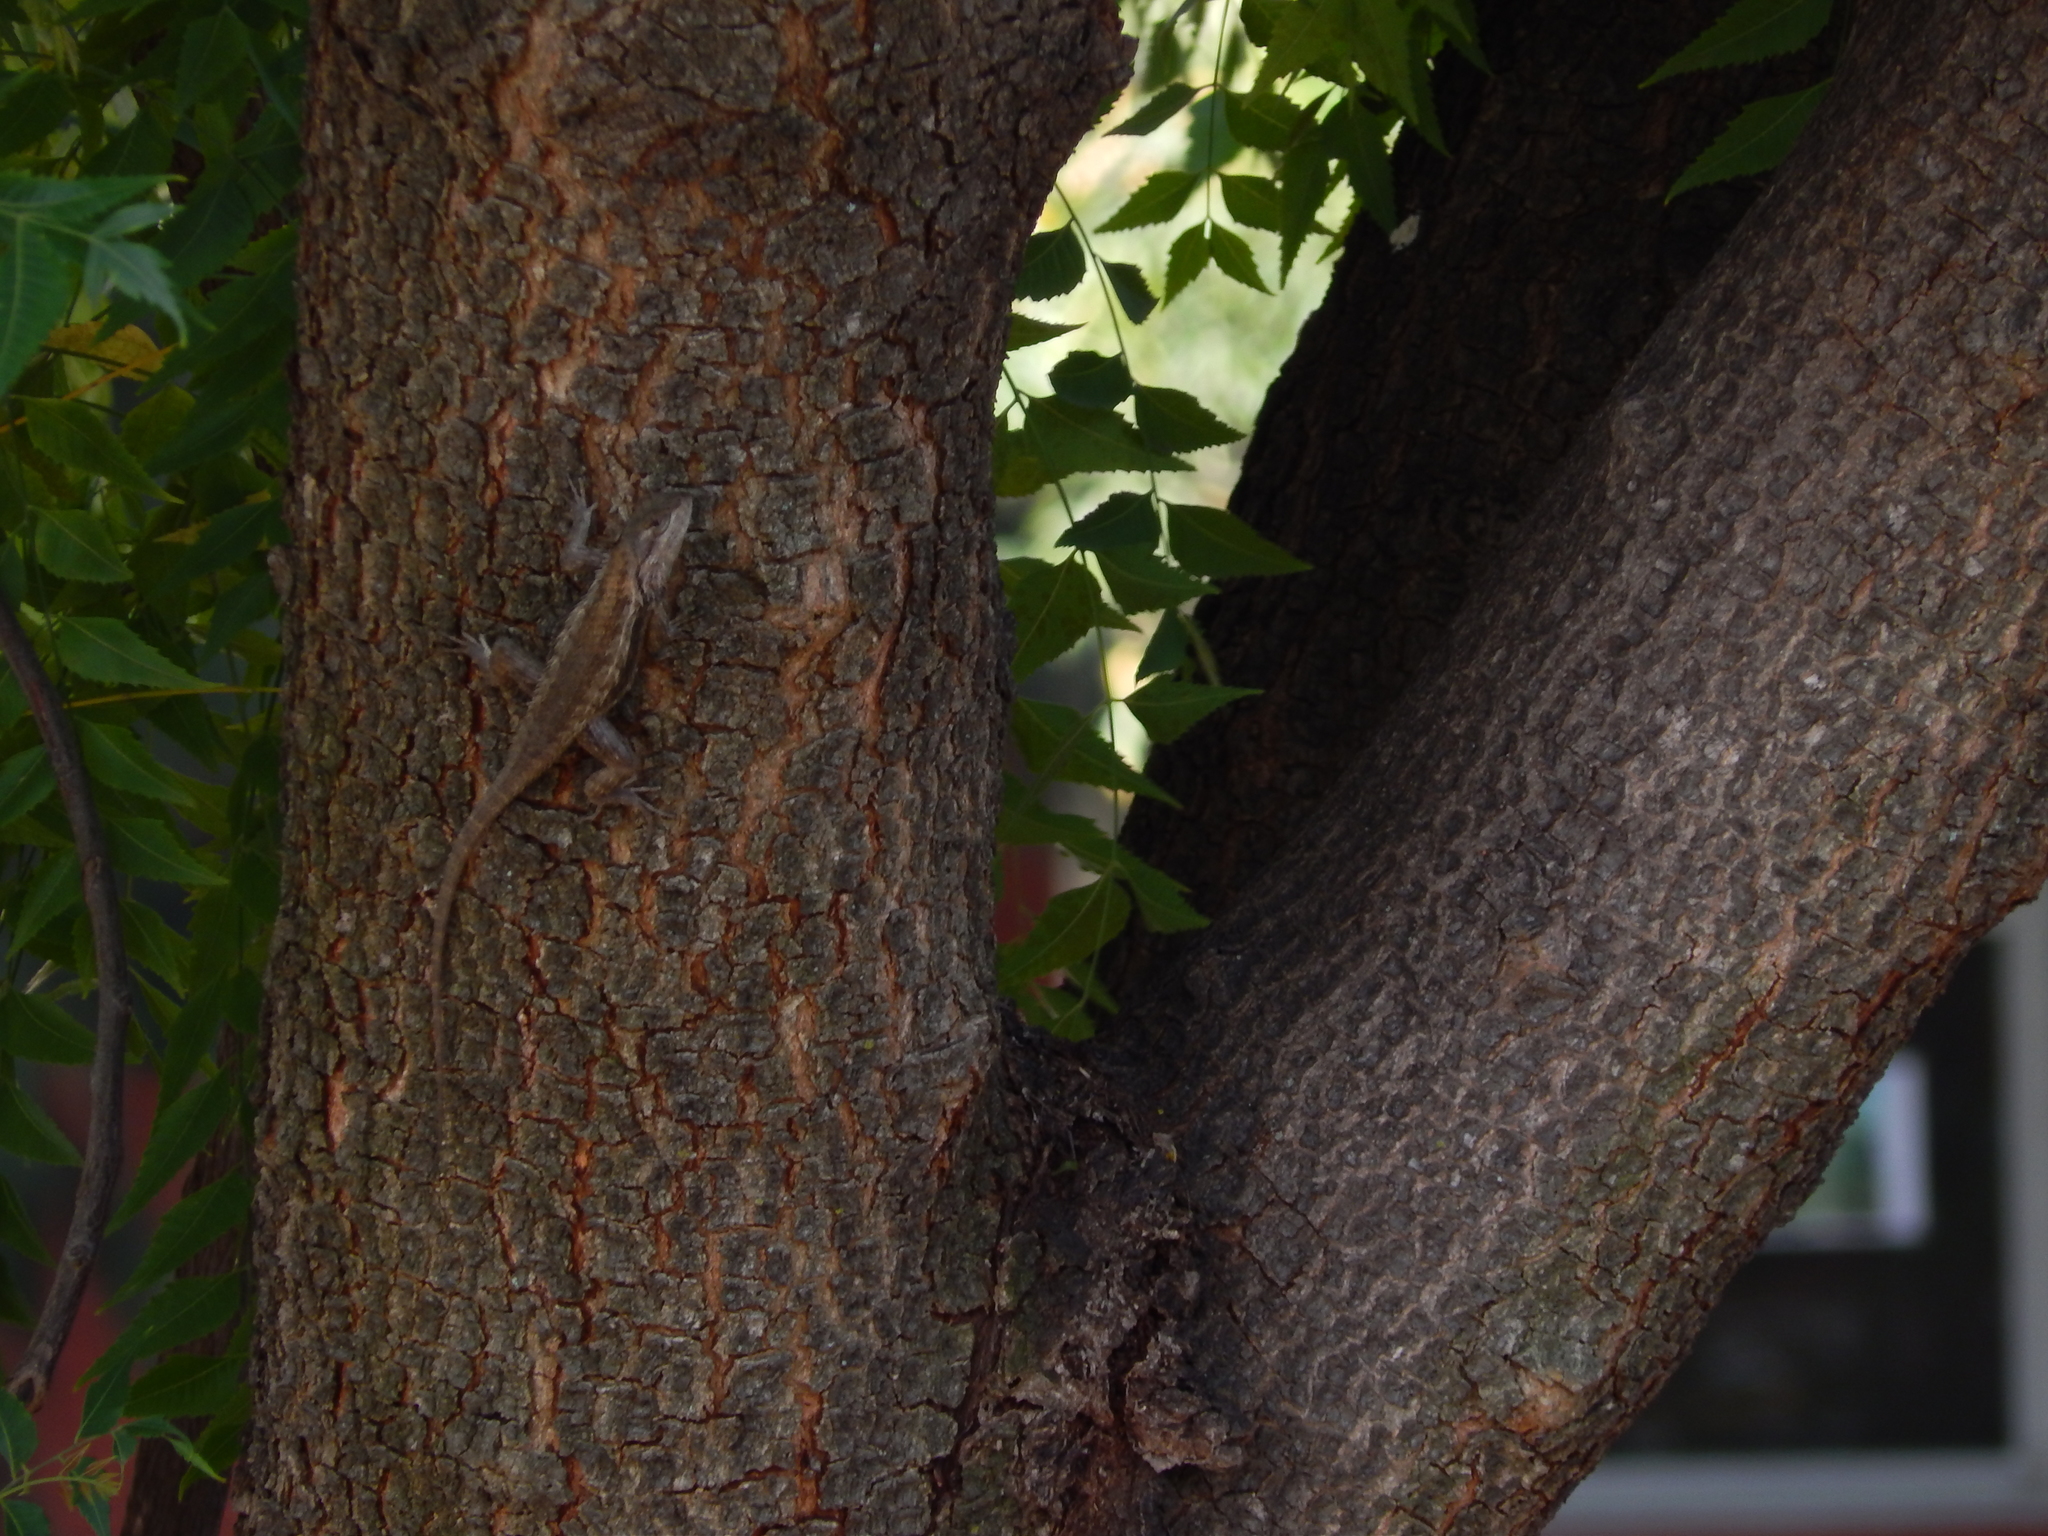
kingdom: Animalia
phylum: Chordata
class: Squamata
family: Phrynosomatidae
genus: Sceloporus
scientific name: Sceloporus olivaceus
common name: Texas spiny lizard
